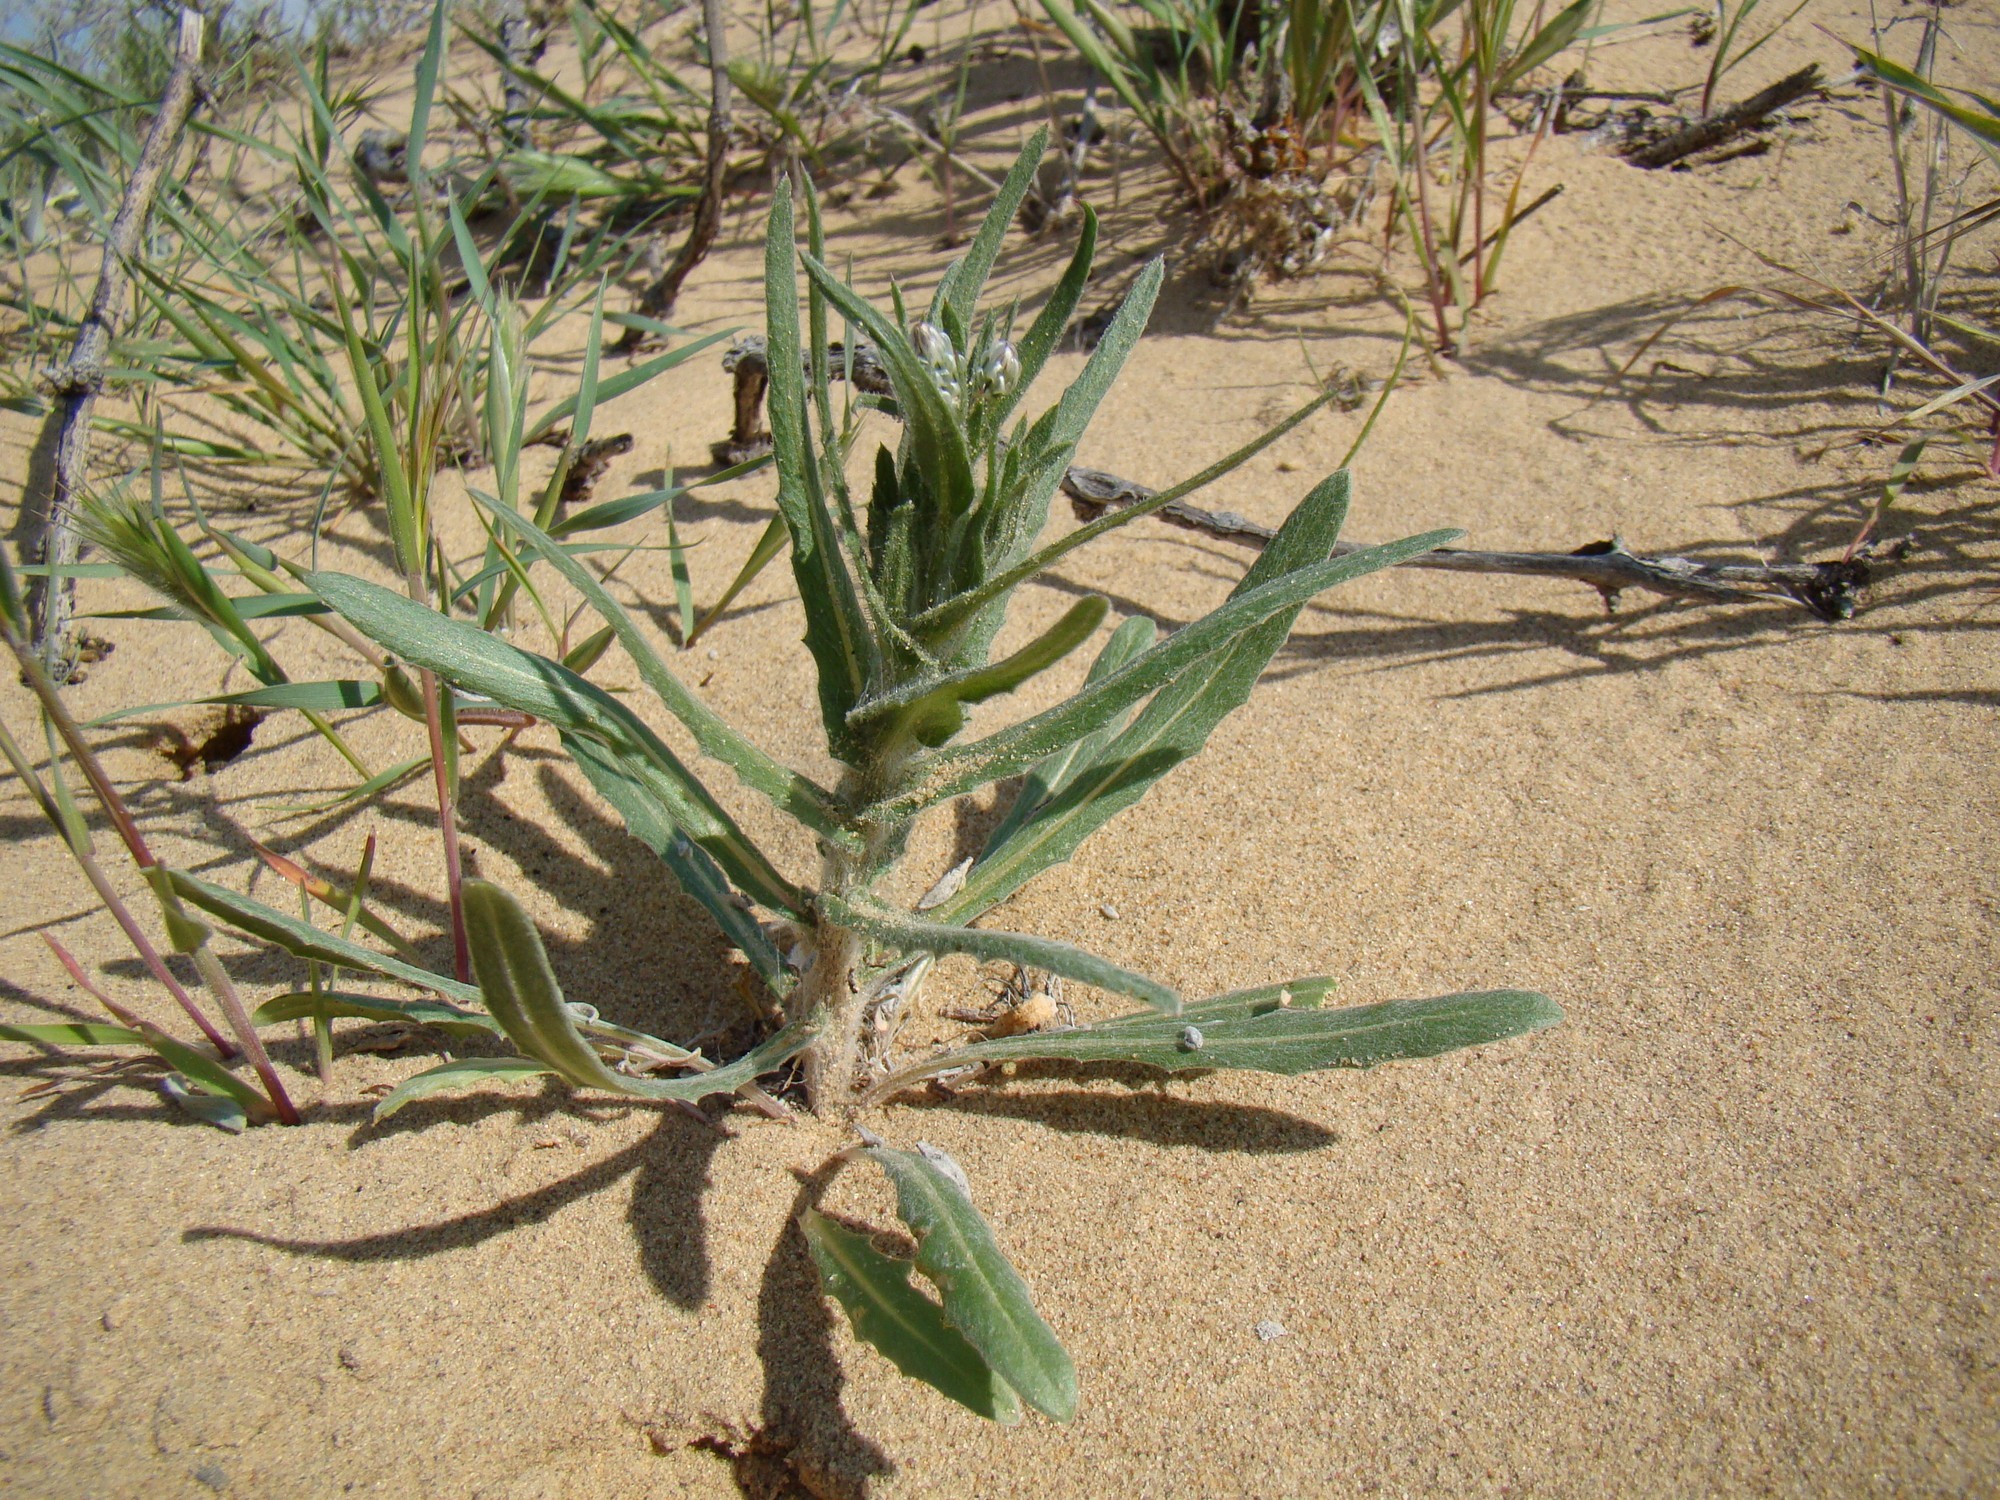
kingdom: Plantae
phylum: Tracheophyta
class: Magnoliopsida
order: Asterales
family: Asteraceae
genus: Centaurea
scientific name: Centaurea pulchella
